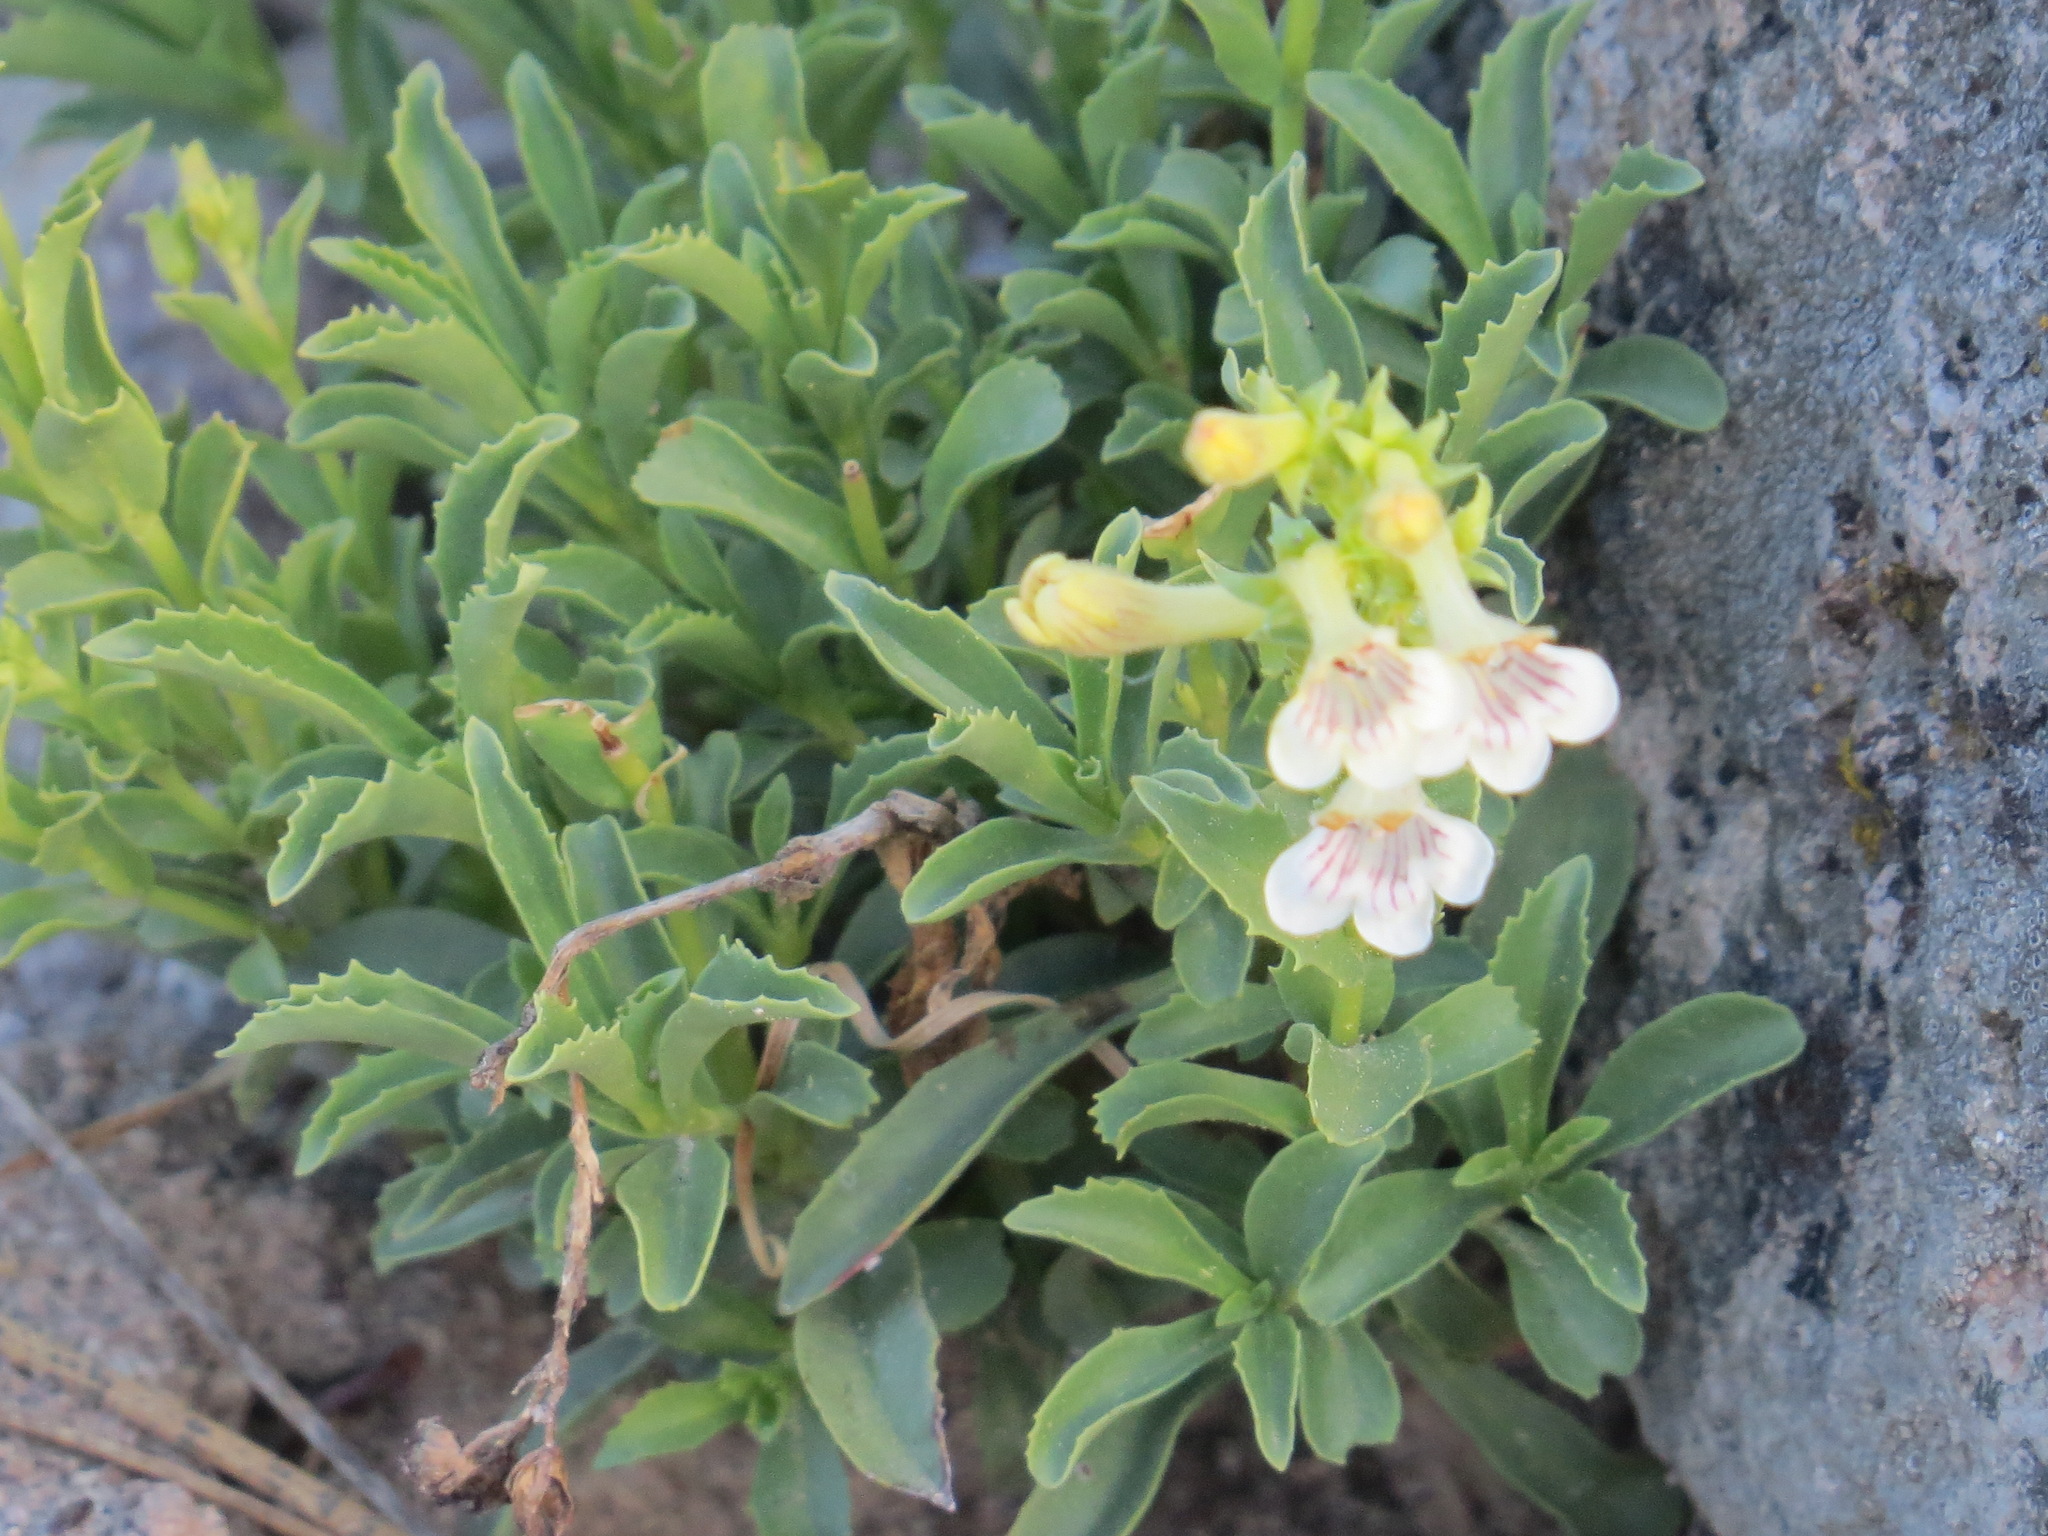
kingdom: Plantae
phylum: Tracheophyta
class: Magnoliopsida
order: Lamiales
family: Plantaginaceae
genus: Penstemon
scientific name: Penstemon deustus
